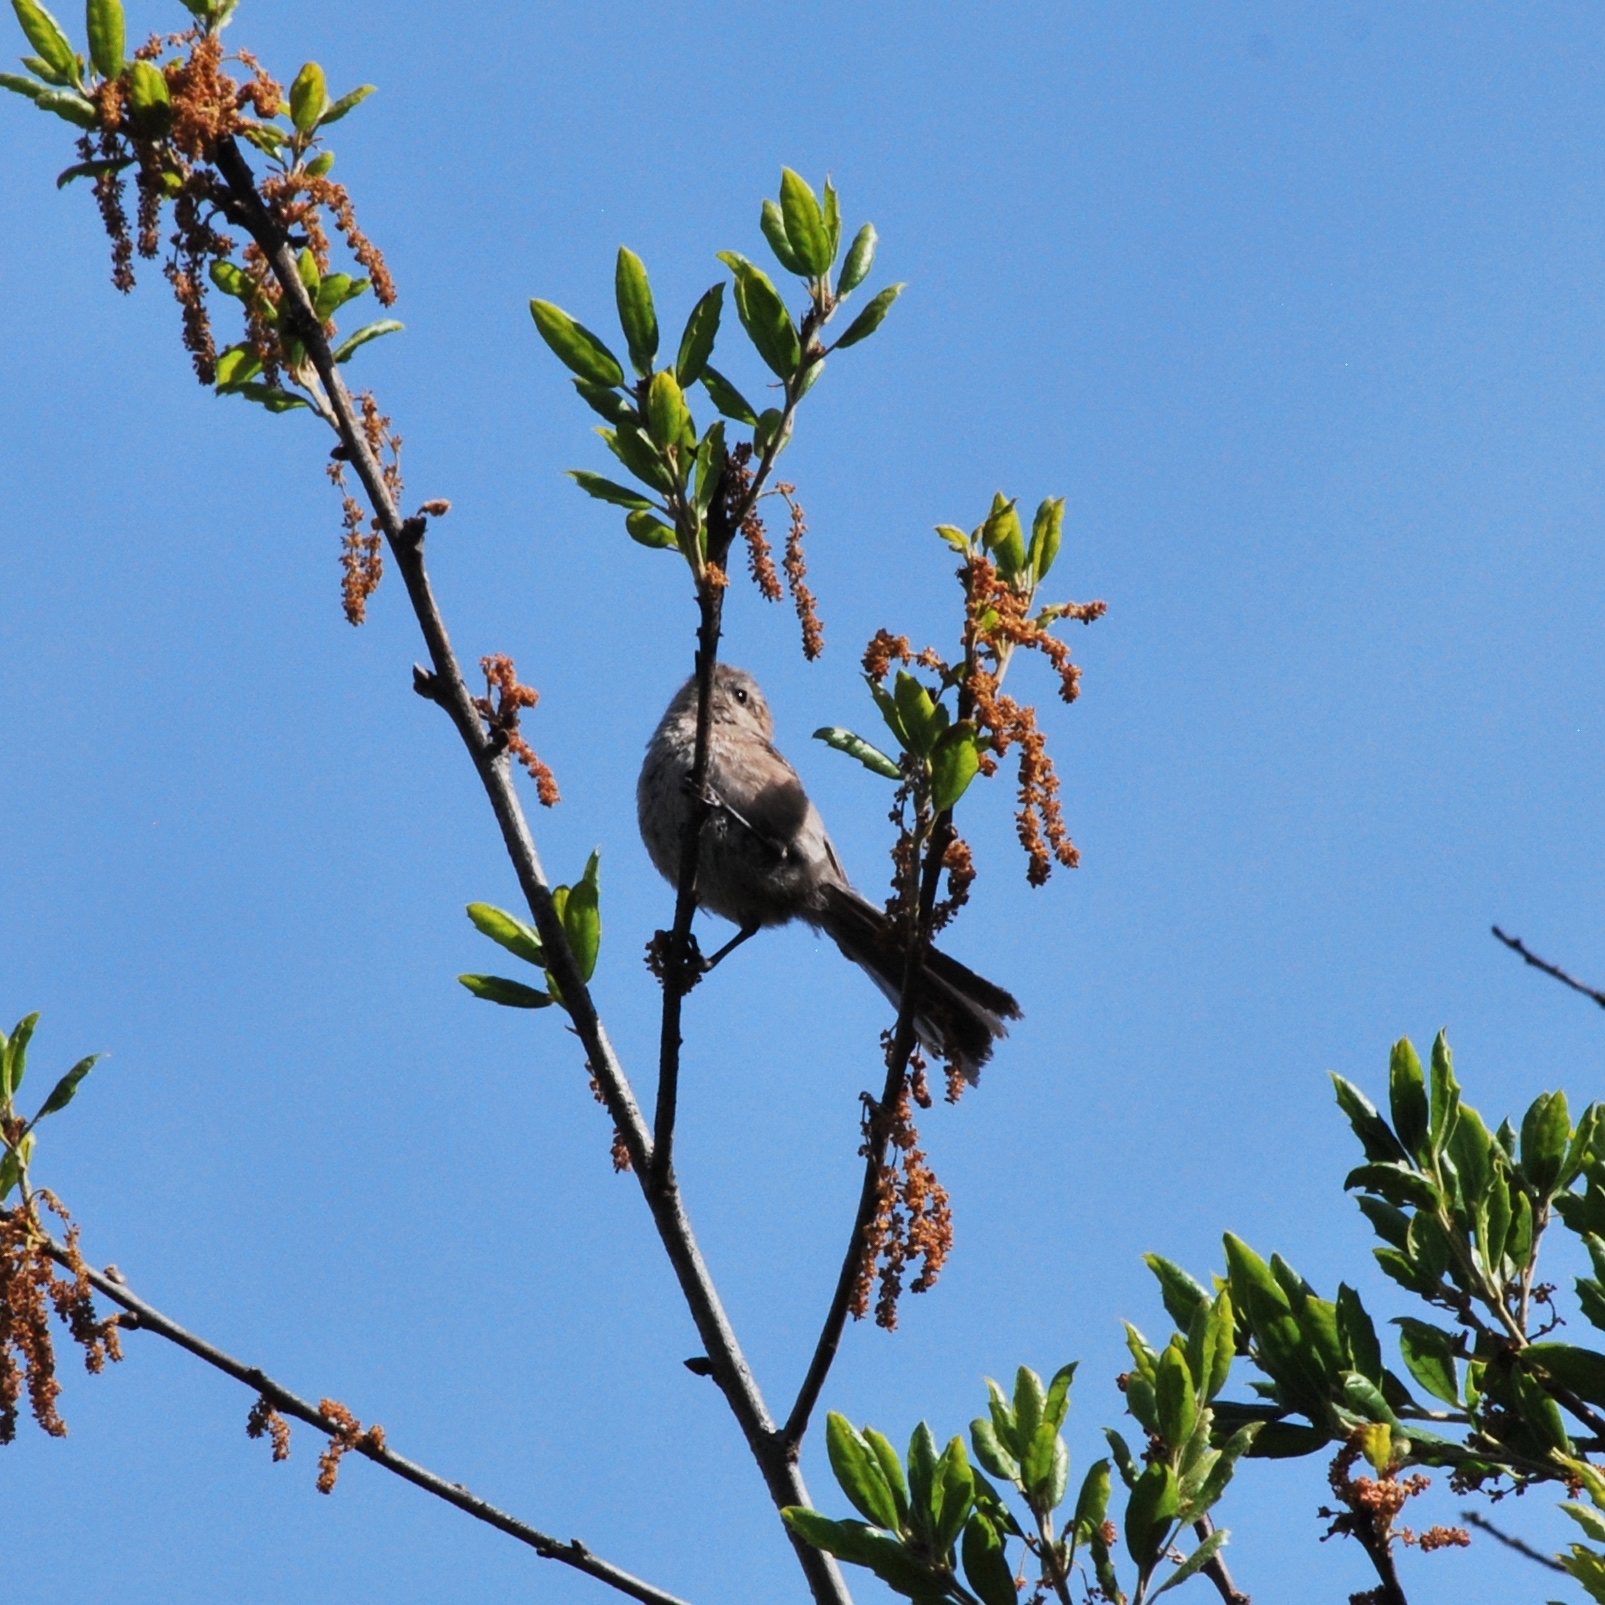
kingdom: Animalia
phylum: Chordata
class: Aves
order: Passeriformes
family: Aegithalidae
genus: Psaltriparus
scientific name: Psaltriparus minimus
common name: American bushtit
